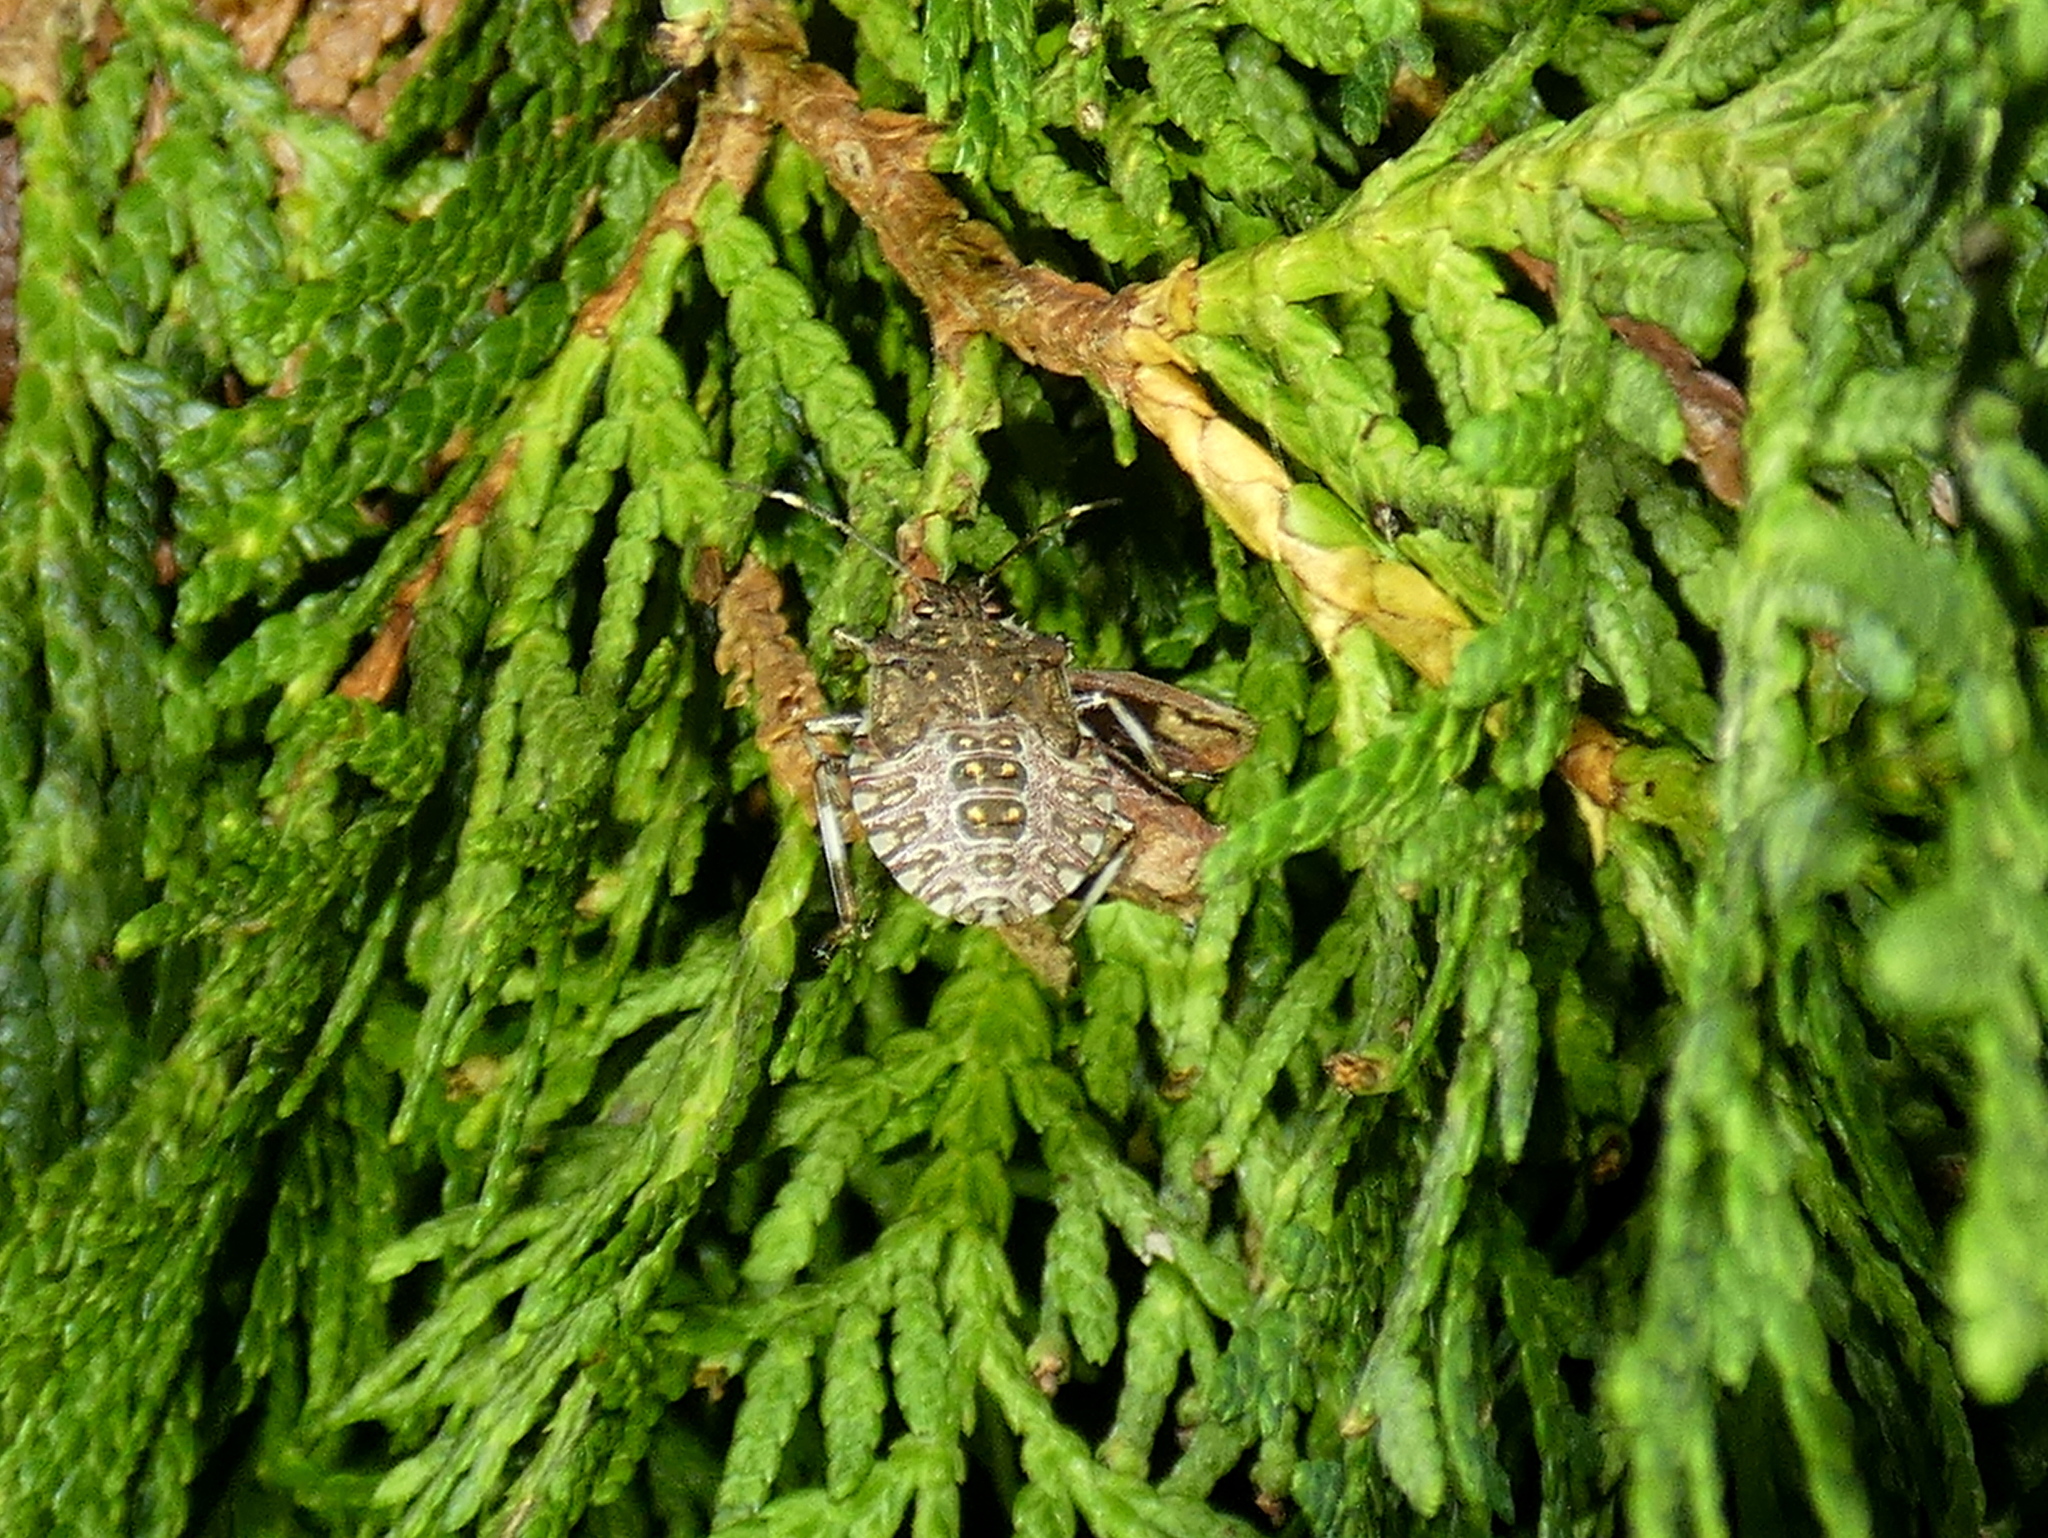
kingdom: Animalia
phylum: Arthropoda
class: Insecta
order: Hemiptera
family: Pentatomidae
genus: Halyomorpha
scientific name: Halyomorpha halys
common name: Brown marmorated stink bug
